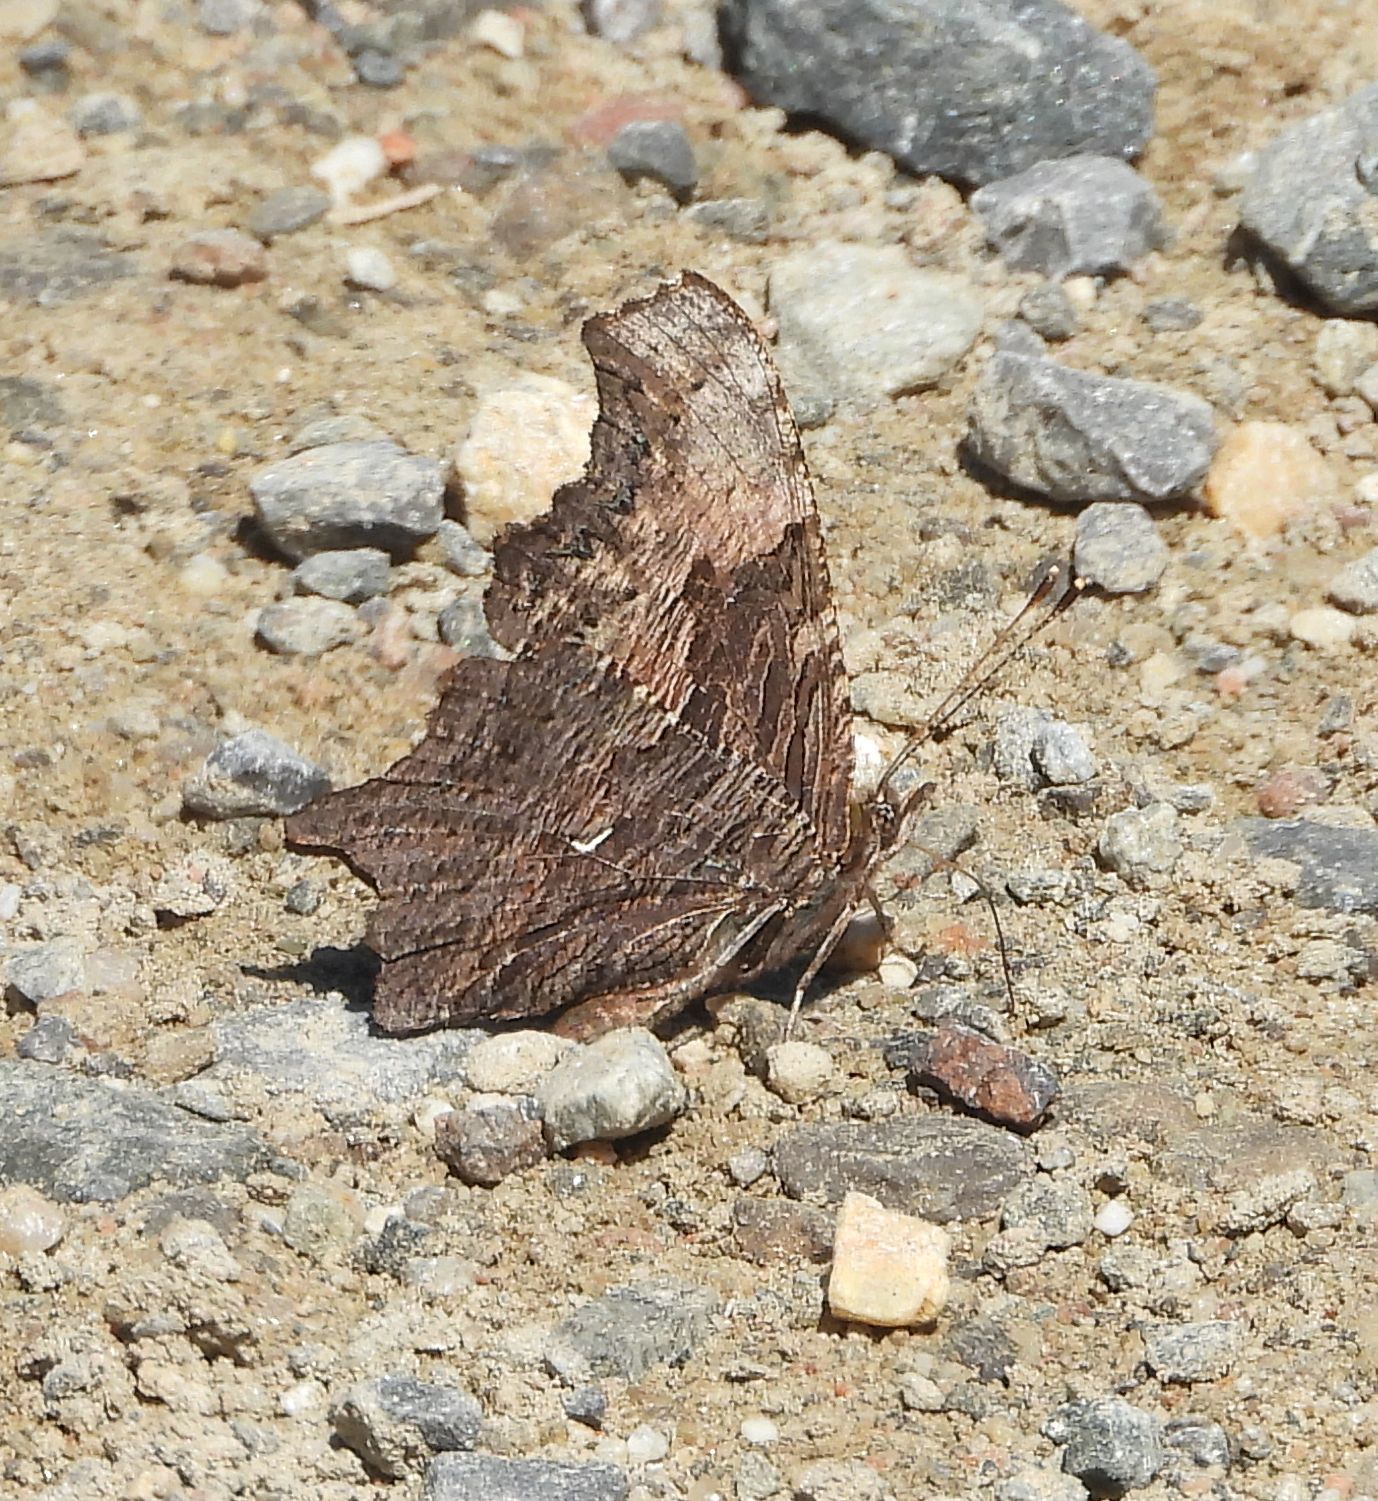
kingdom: Animalia
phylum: Arthropoda
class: Insecta
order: Lepidoptera
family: Nymphalidae
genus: Polygonia
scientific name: Polygonia progne
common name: Gray comma
